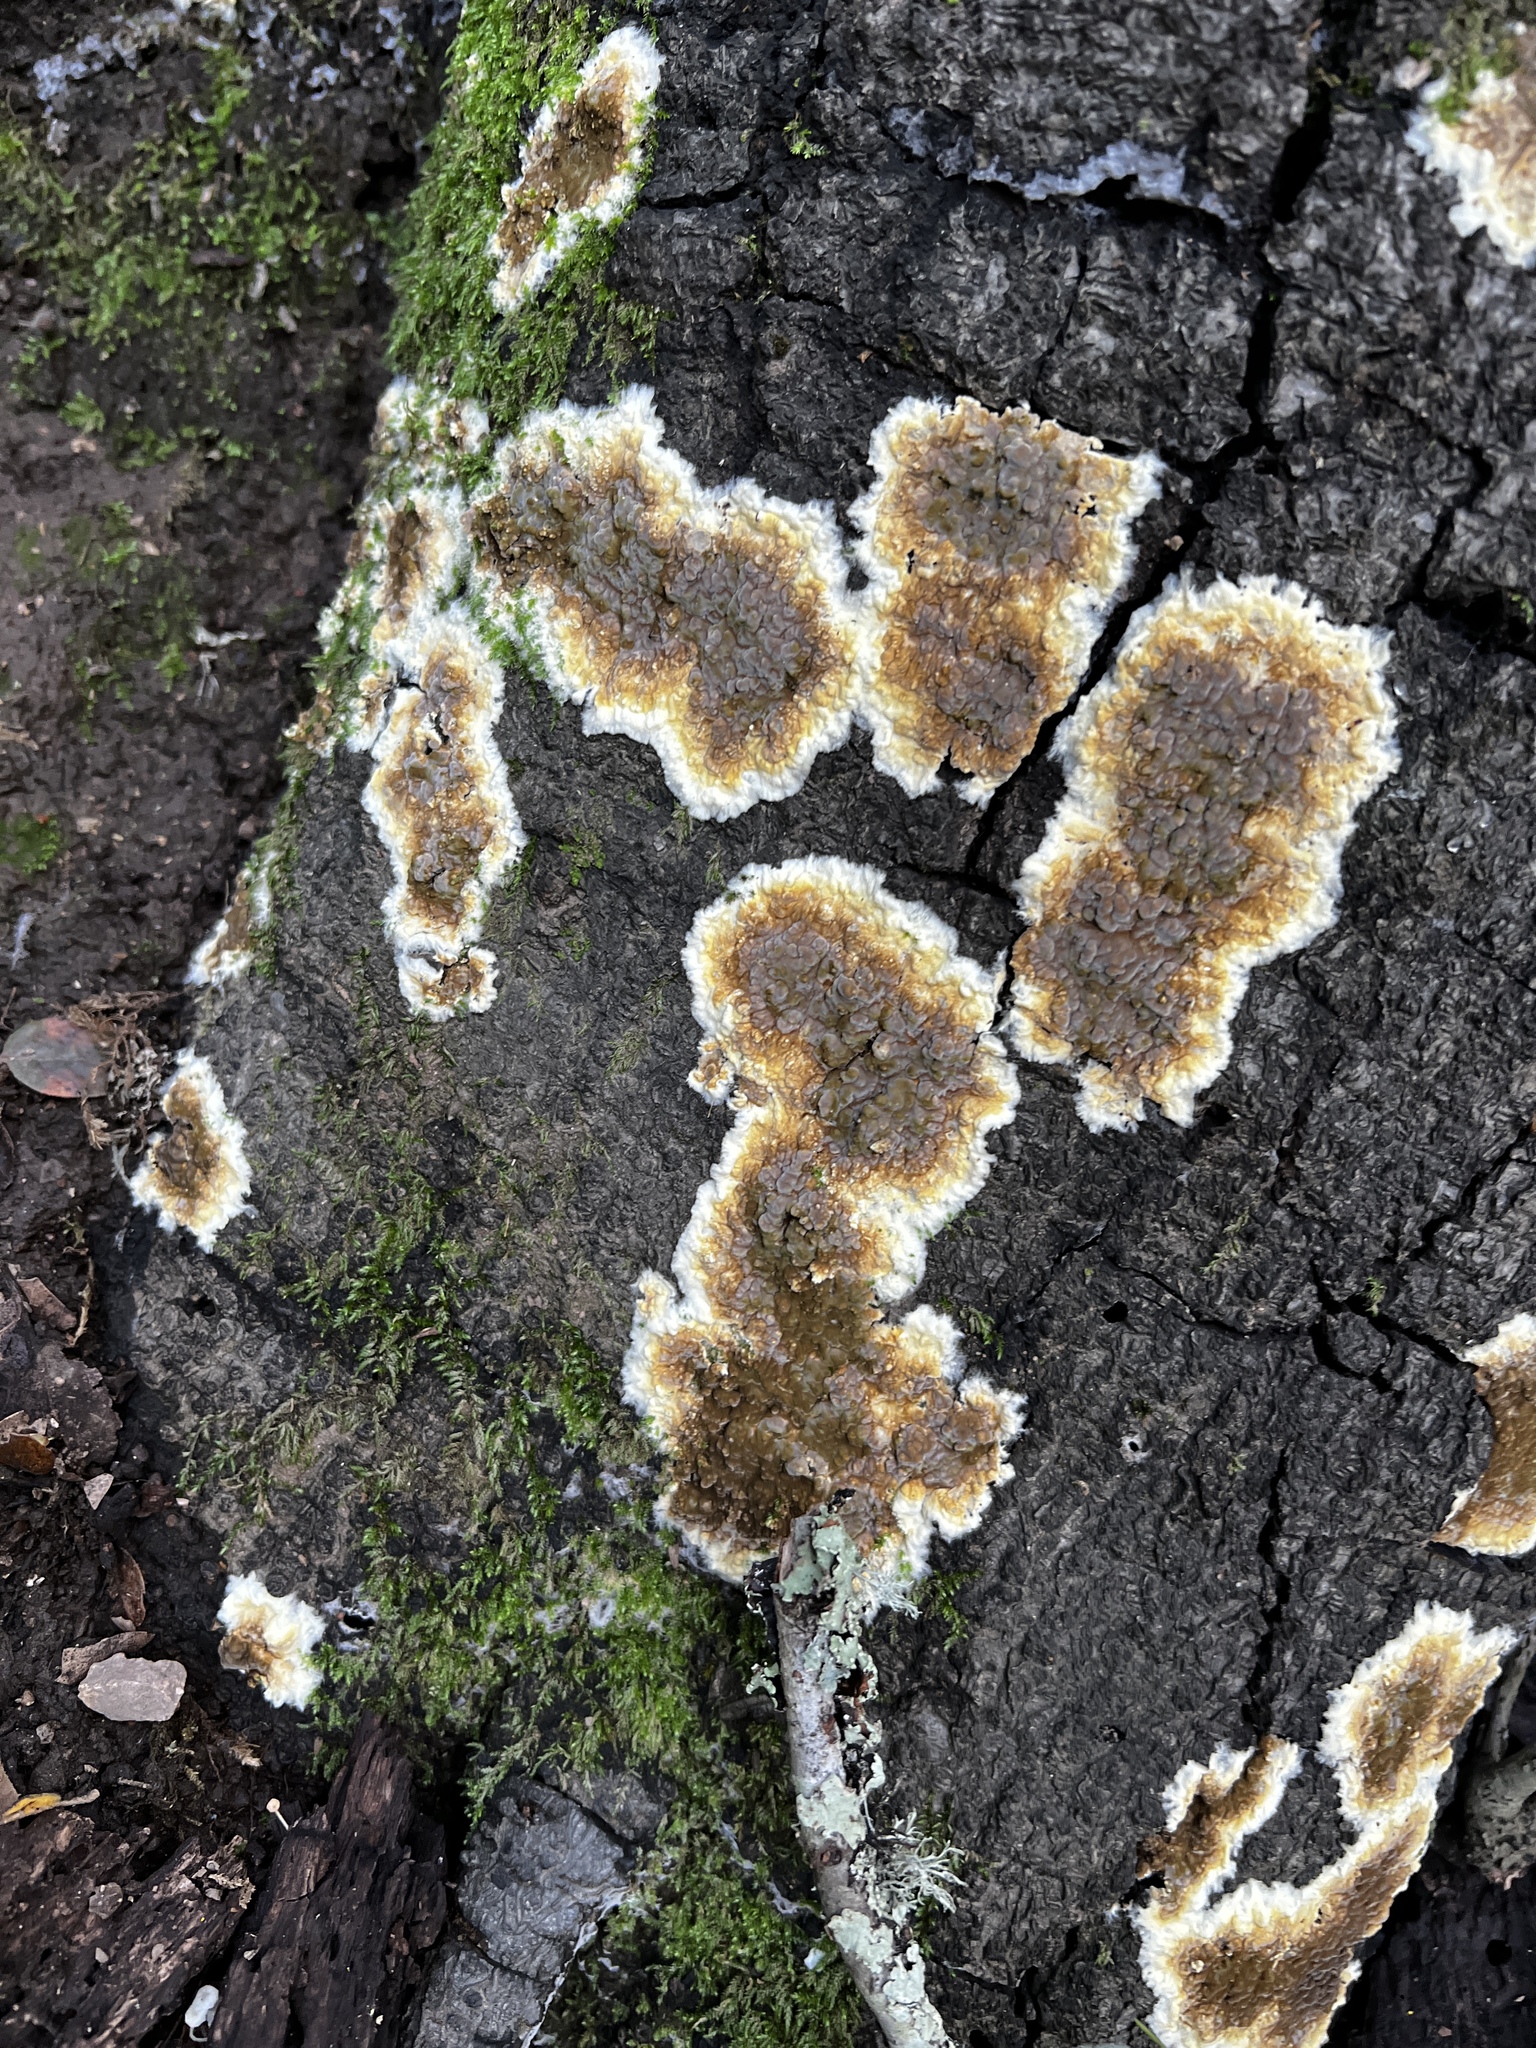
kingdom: Fungi
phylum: Basidiomycota
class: Agaricomycetes
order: Boletales
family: Coniophoraceae
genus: Coniophora
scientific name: Coniophora puteana
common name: Cellar fungus
